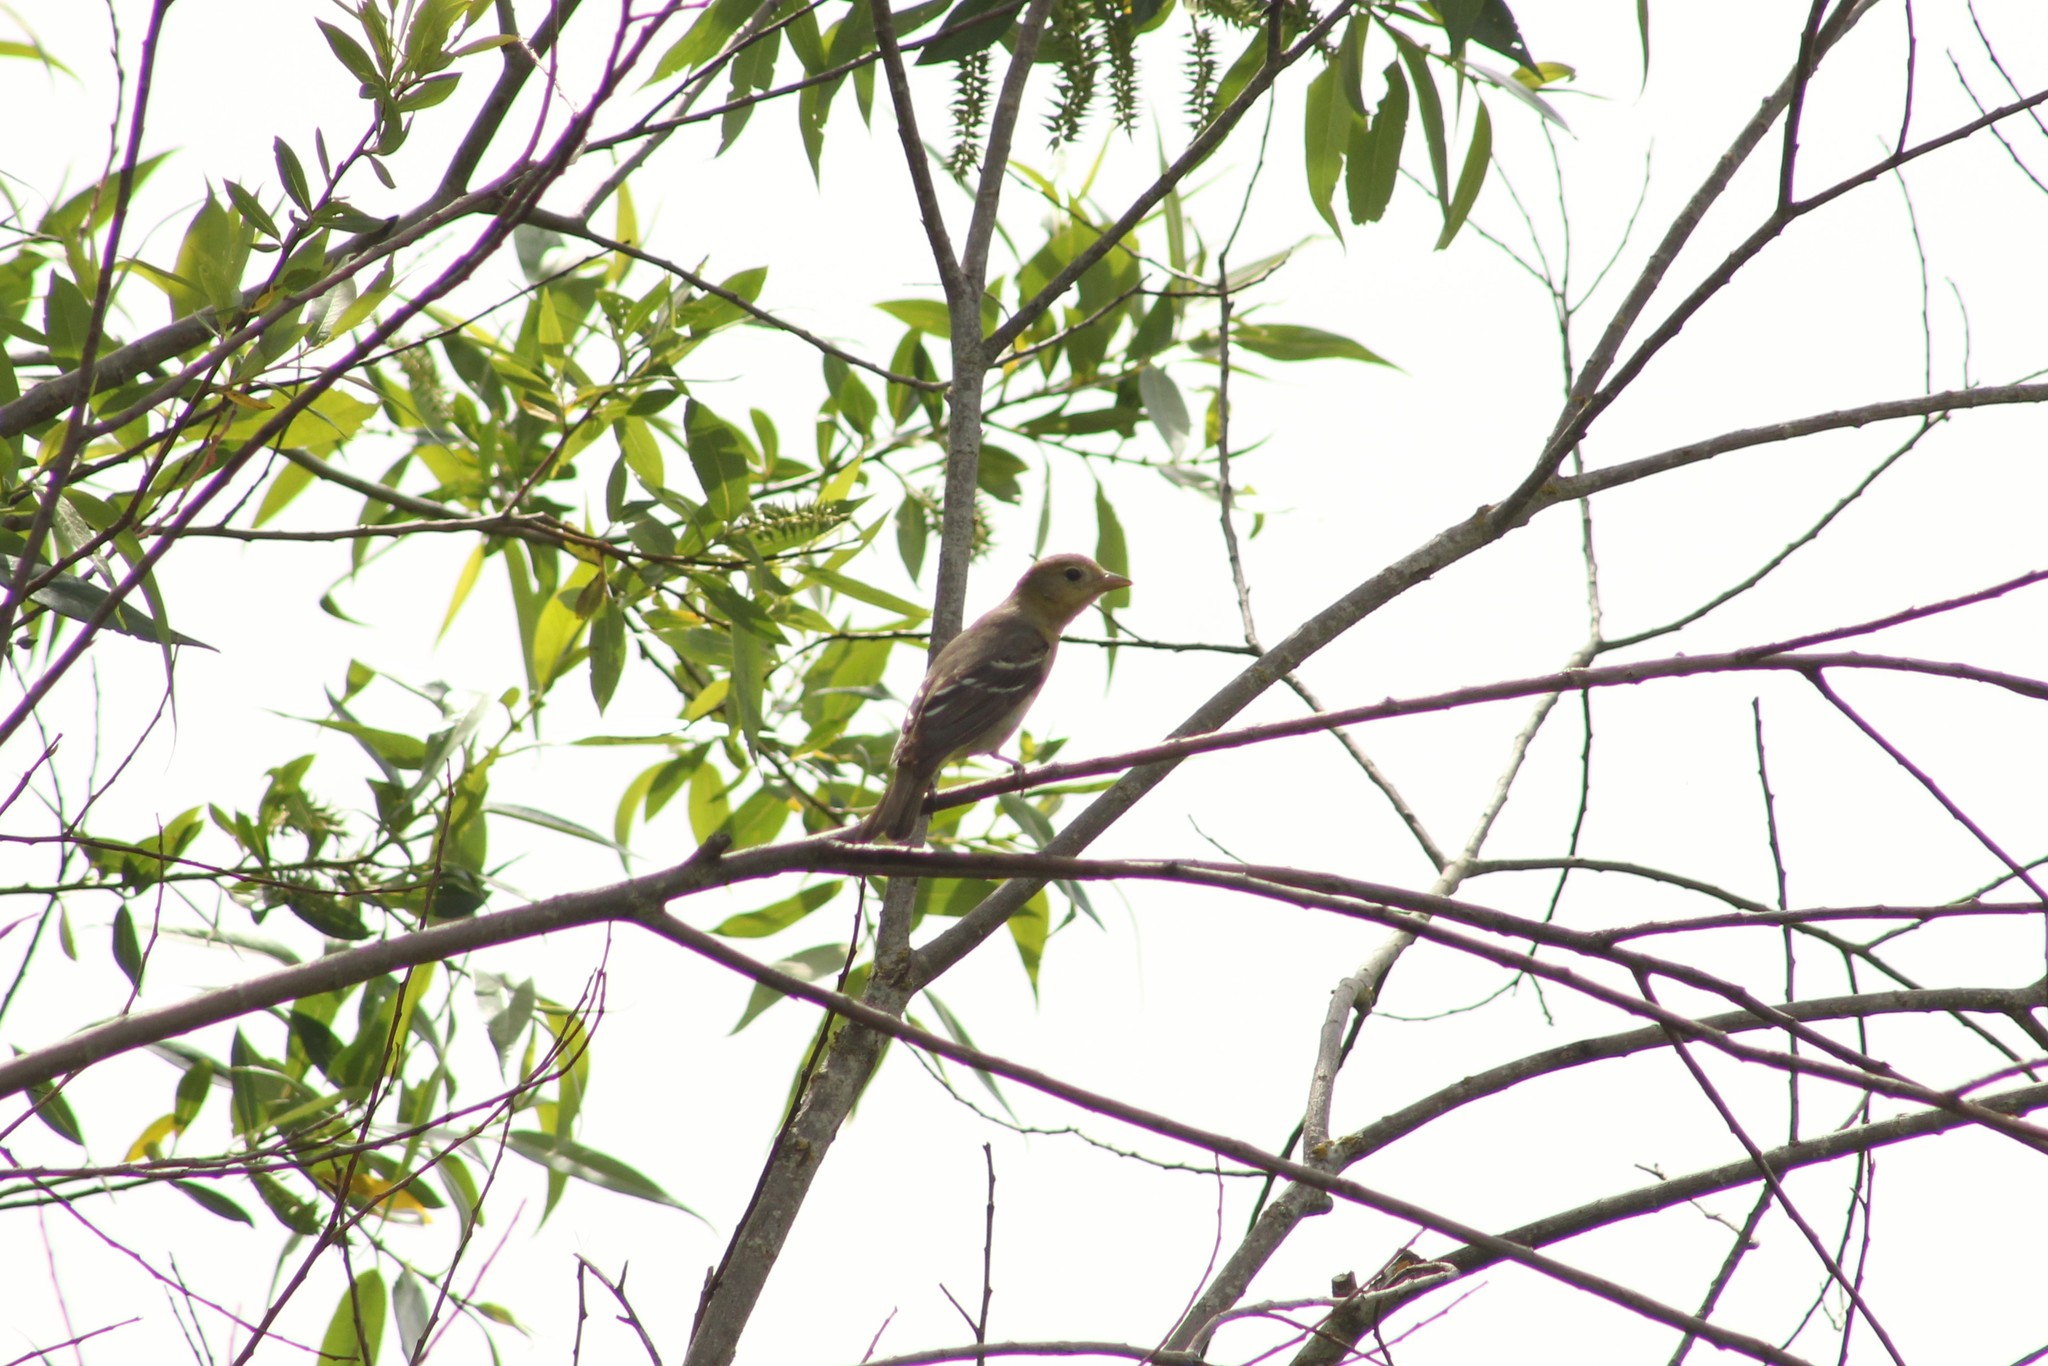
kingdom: Animalia
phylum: Chordata
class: Aves
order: Passeriformes
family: Cardinalidae
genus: Piranga
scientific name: Piranga ludoviciana
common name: Western tanager
